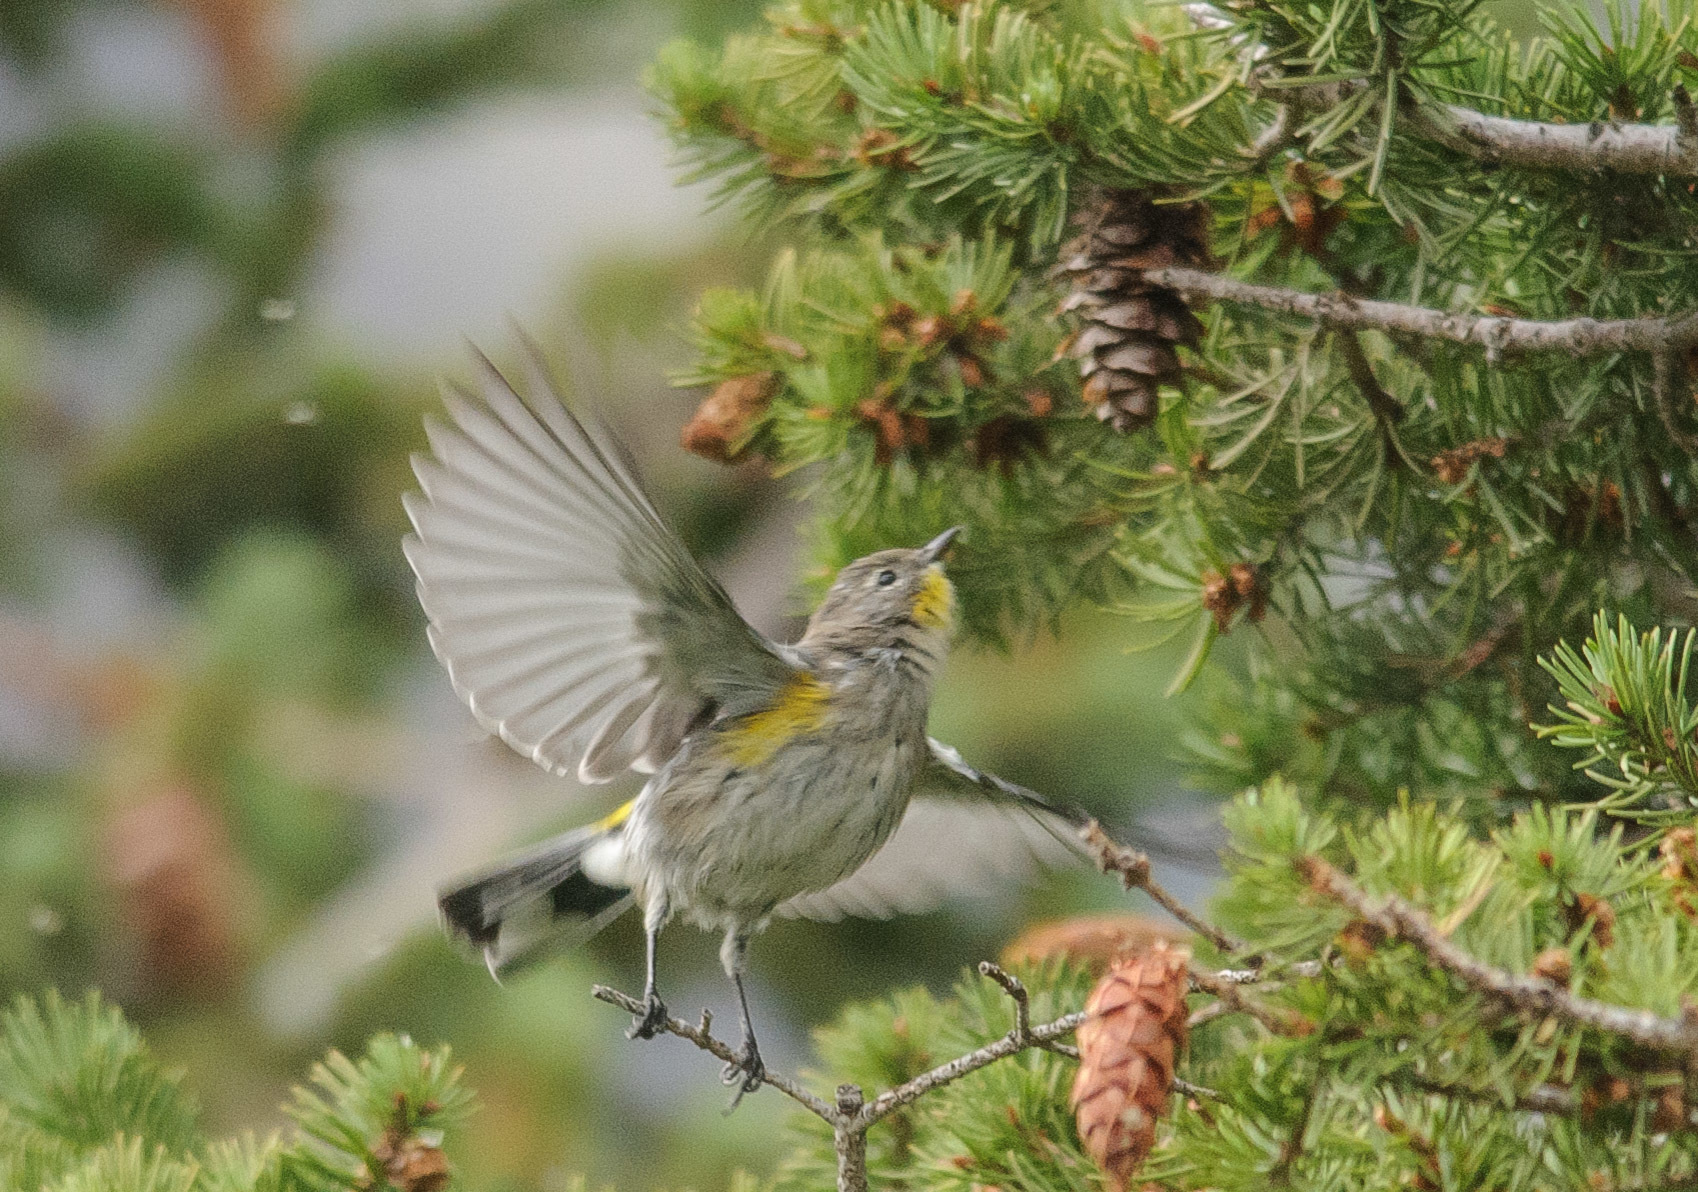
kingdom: Animalia
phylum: Chordata
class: Aves
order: Passeriformes
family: Parulidae
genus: Setophaga
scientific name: Setophaga coronata
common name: Myrtle warbler
